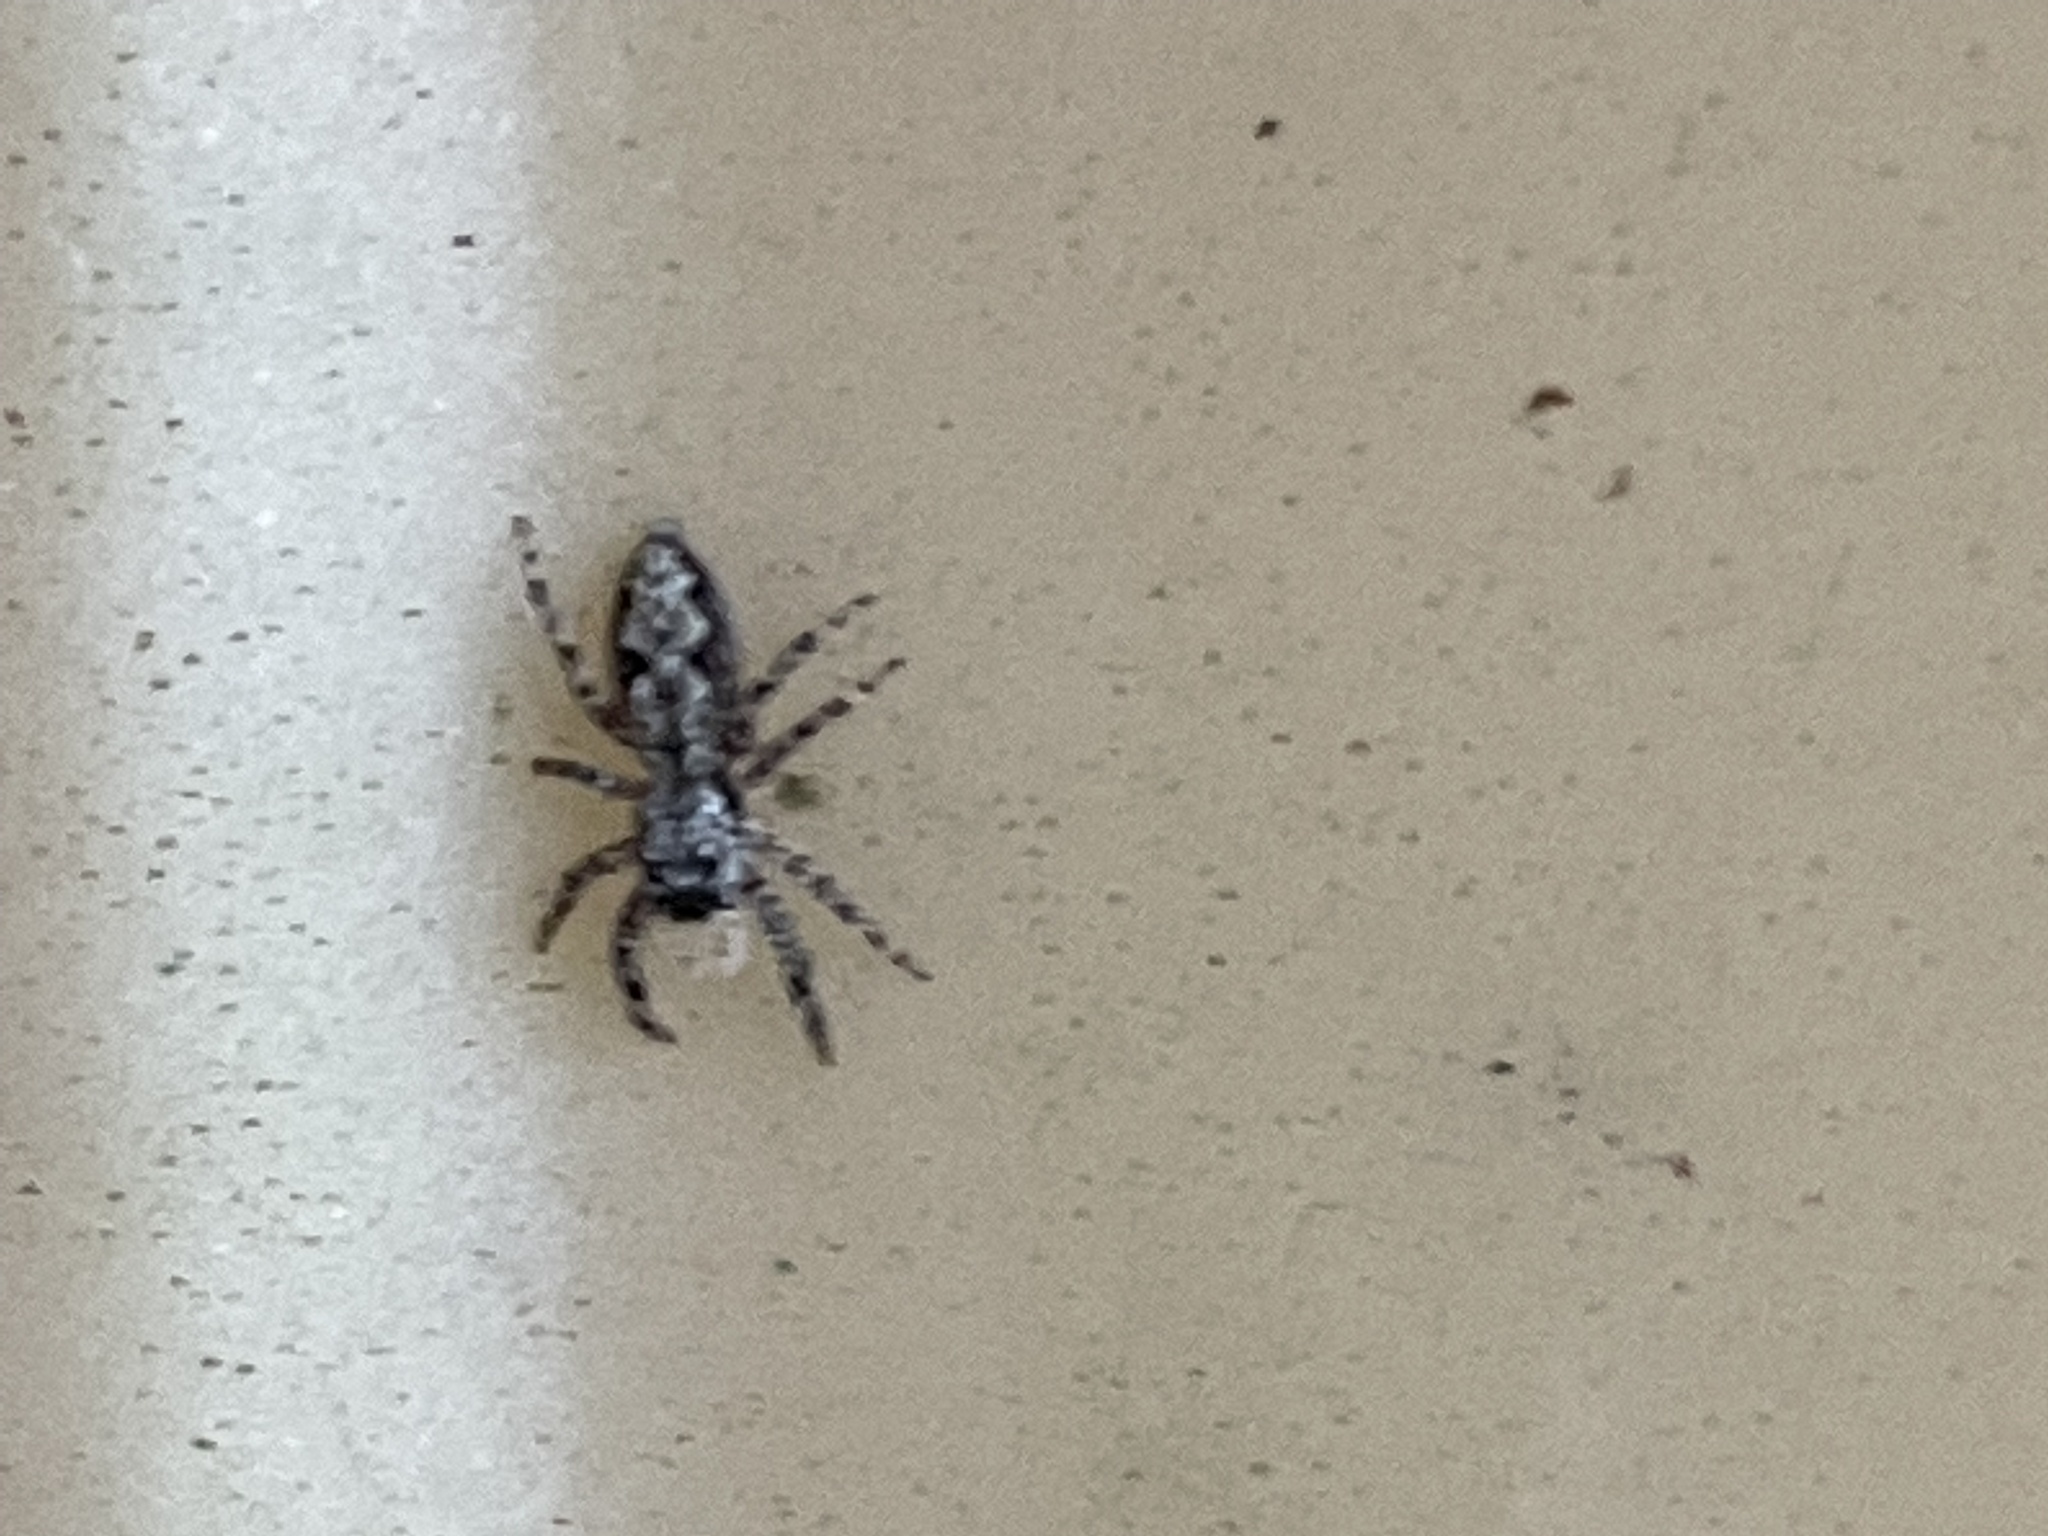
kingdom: Animalia
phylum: Arthropoda
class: Arachnida
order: Araneae
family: Salticidae
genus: Platycryptus
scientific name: Platycryptus undatus
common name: Tan jumping spider
